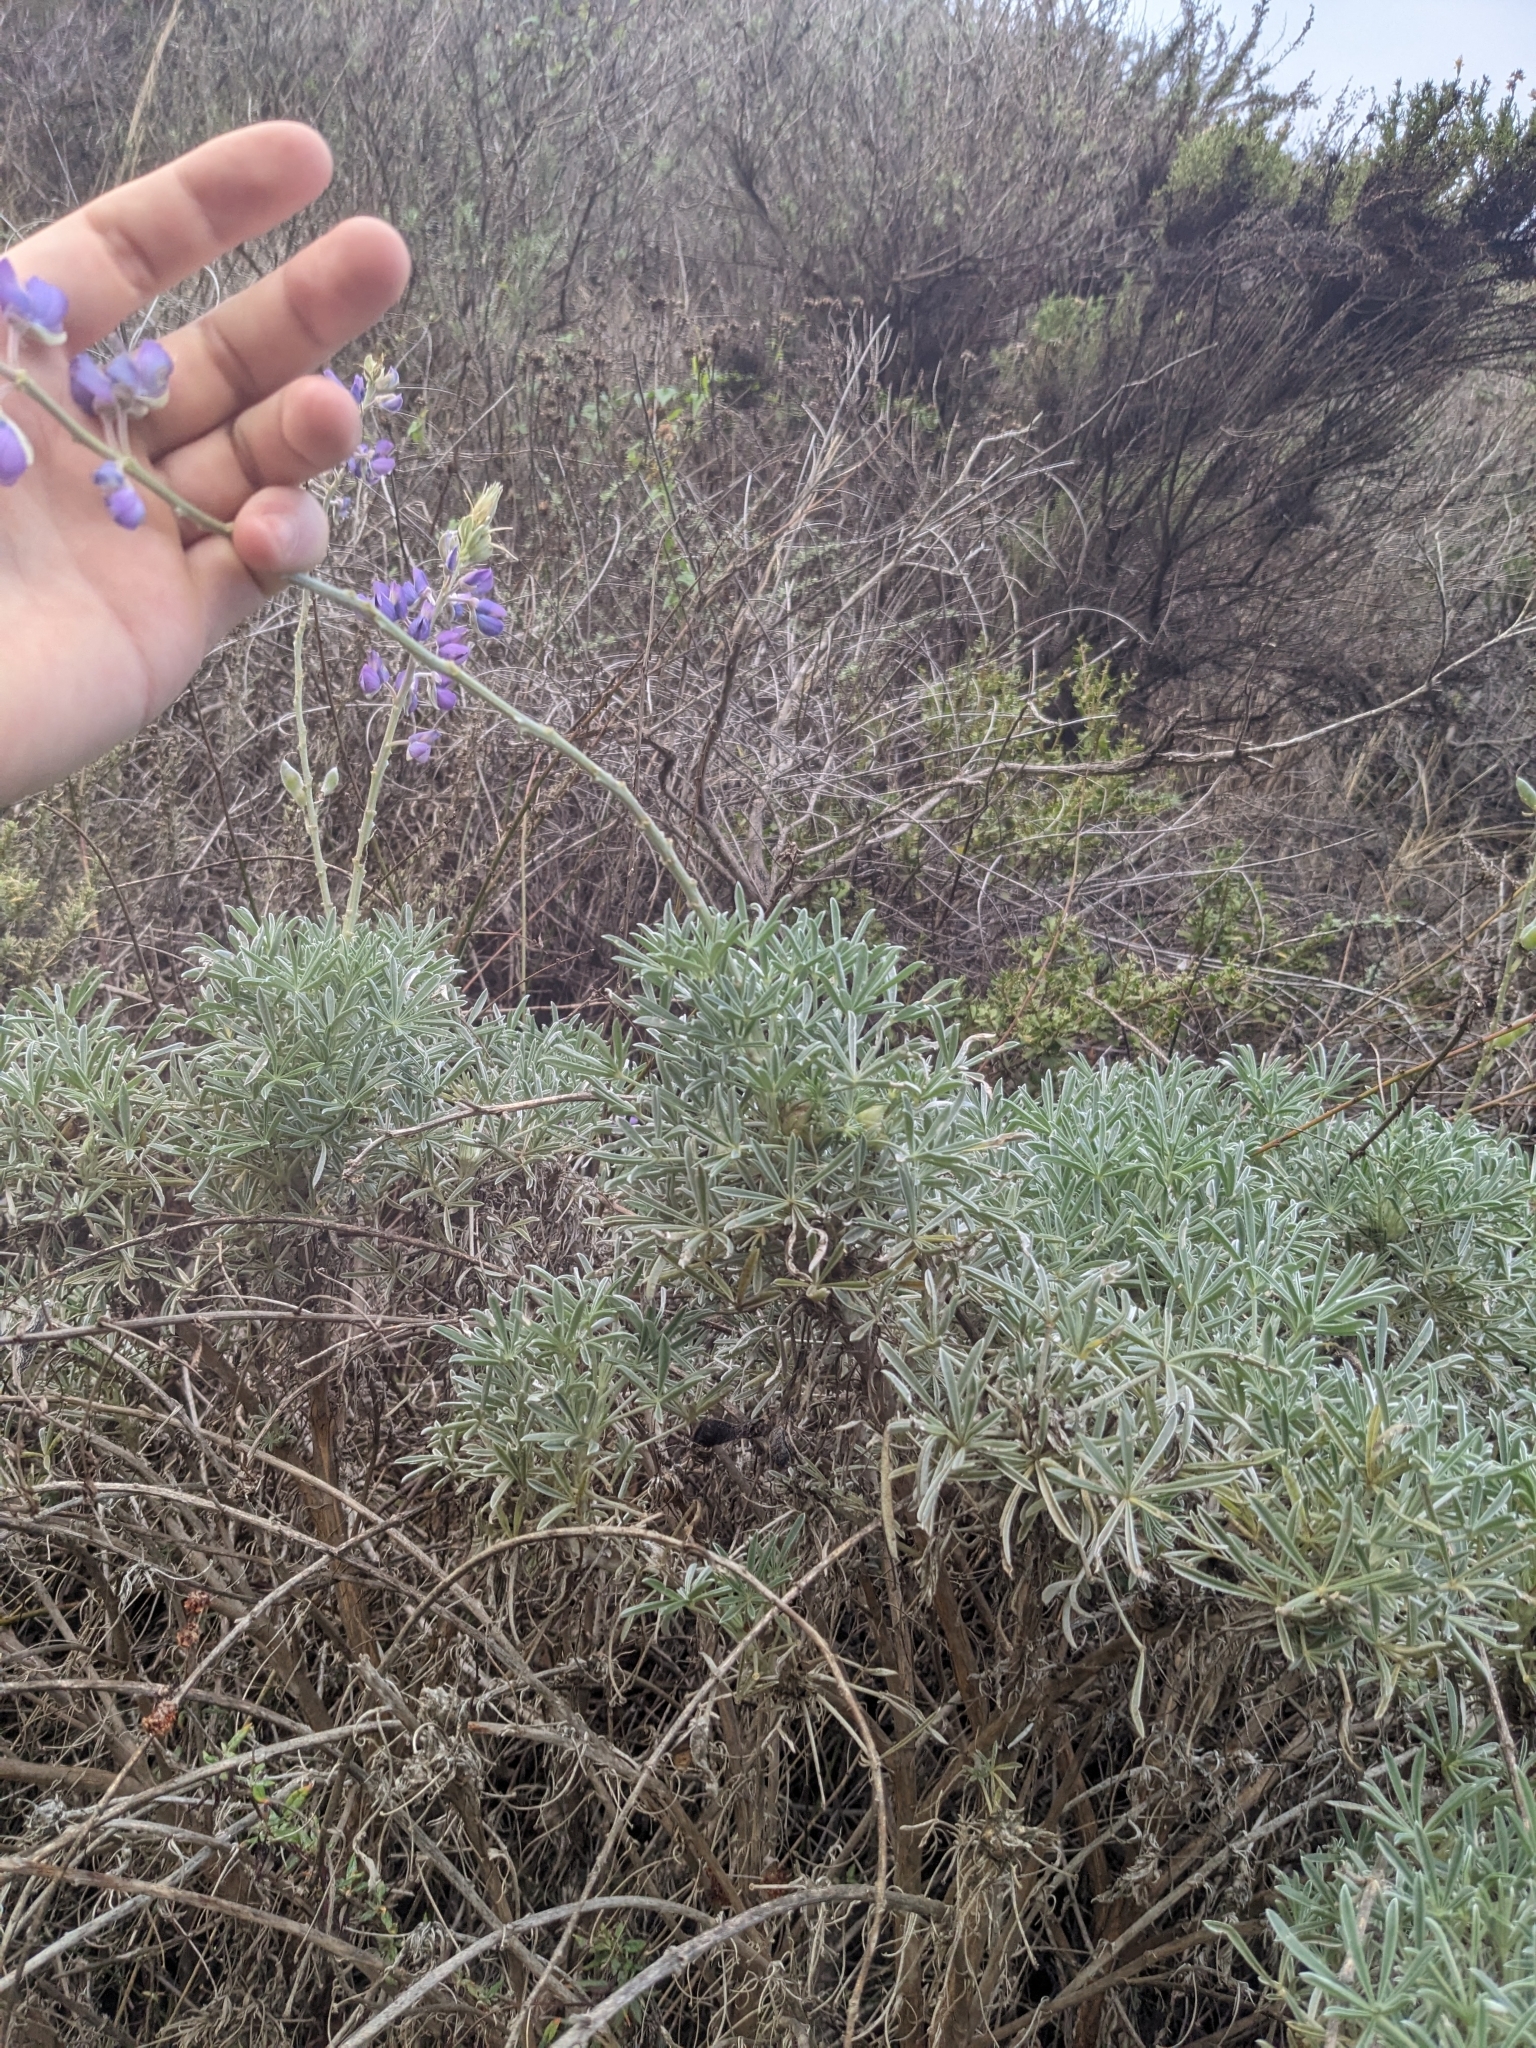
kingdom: Plantae
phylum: Tracheophyta
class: Magnoliopsida
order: Fabales
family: Fabaceae
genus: Lupinus
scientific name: Lupinus chamissonis
